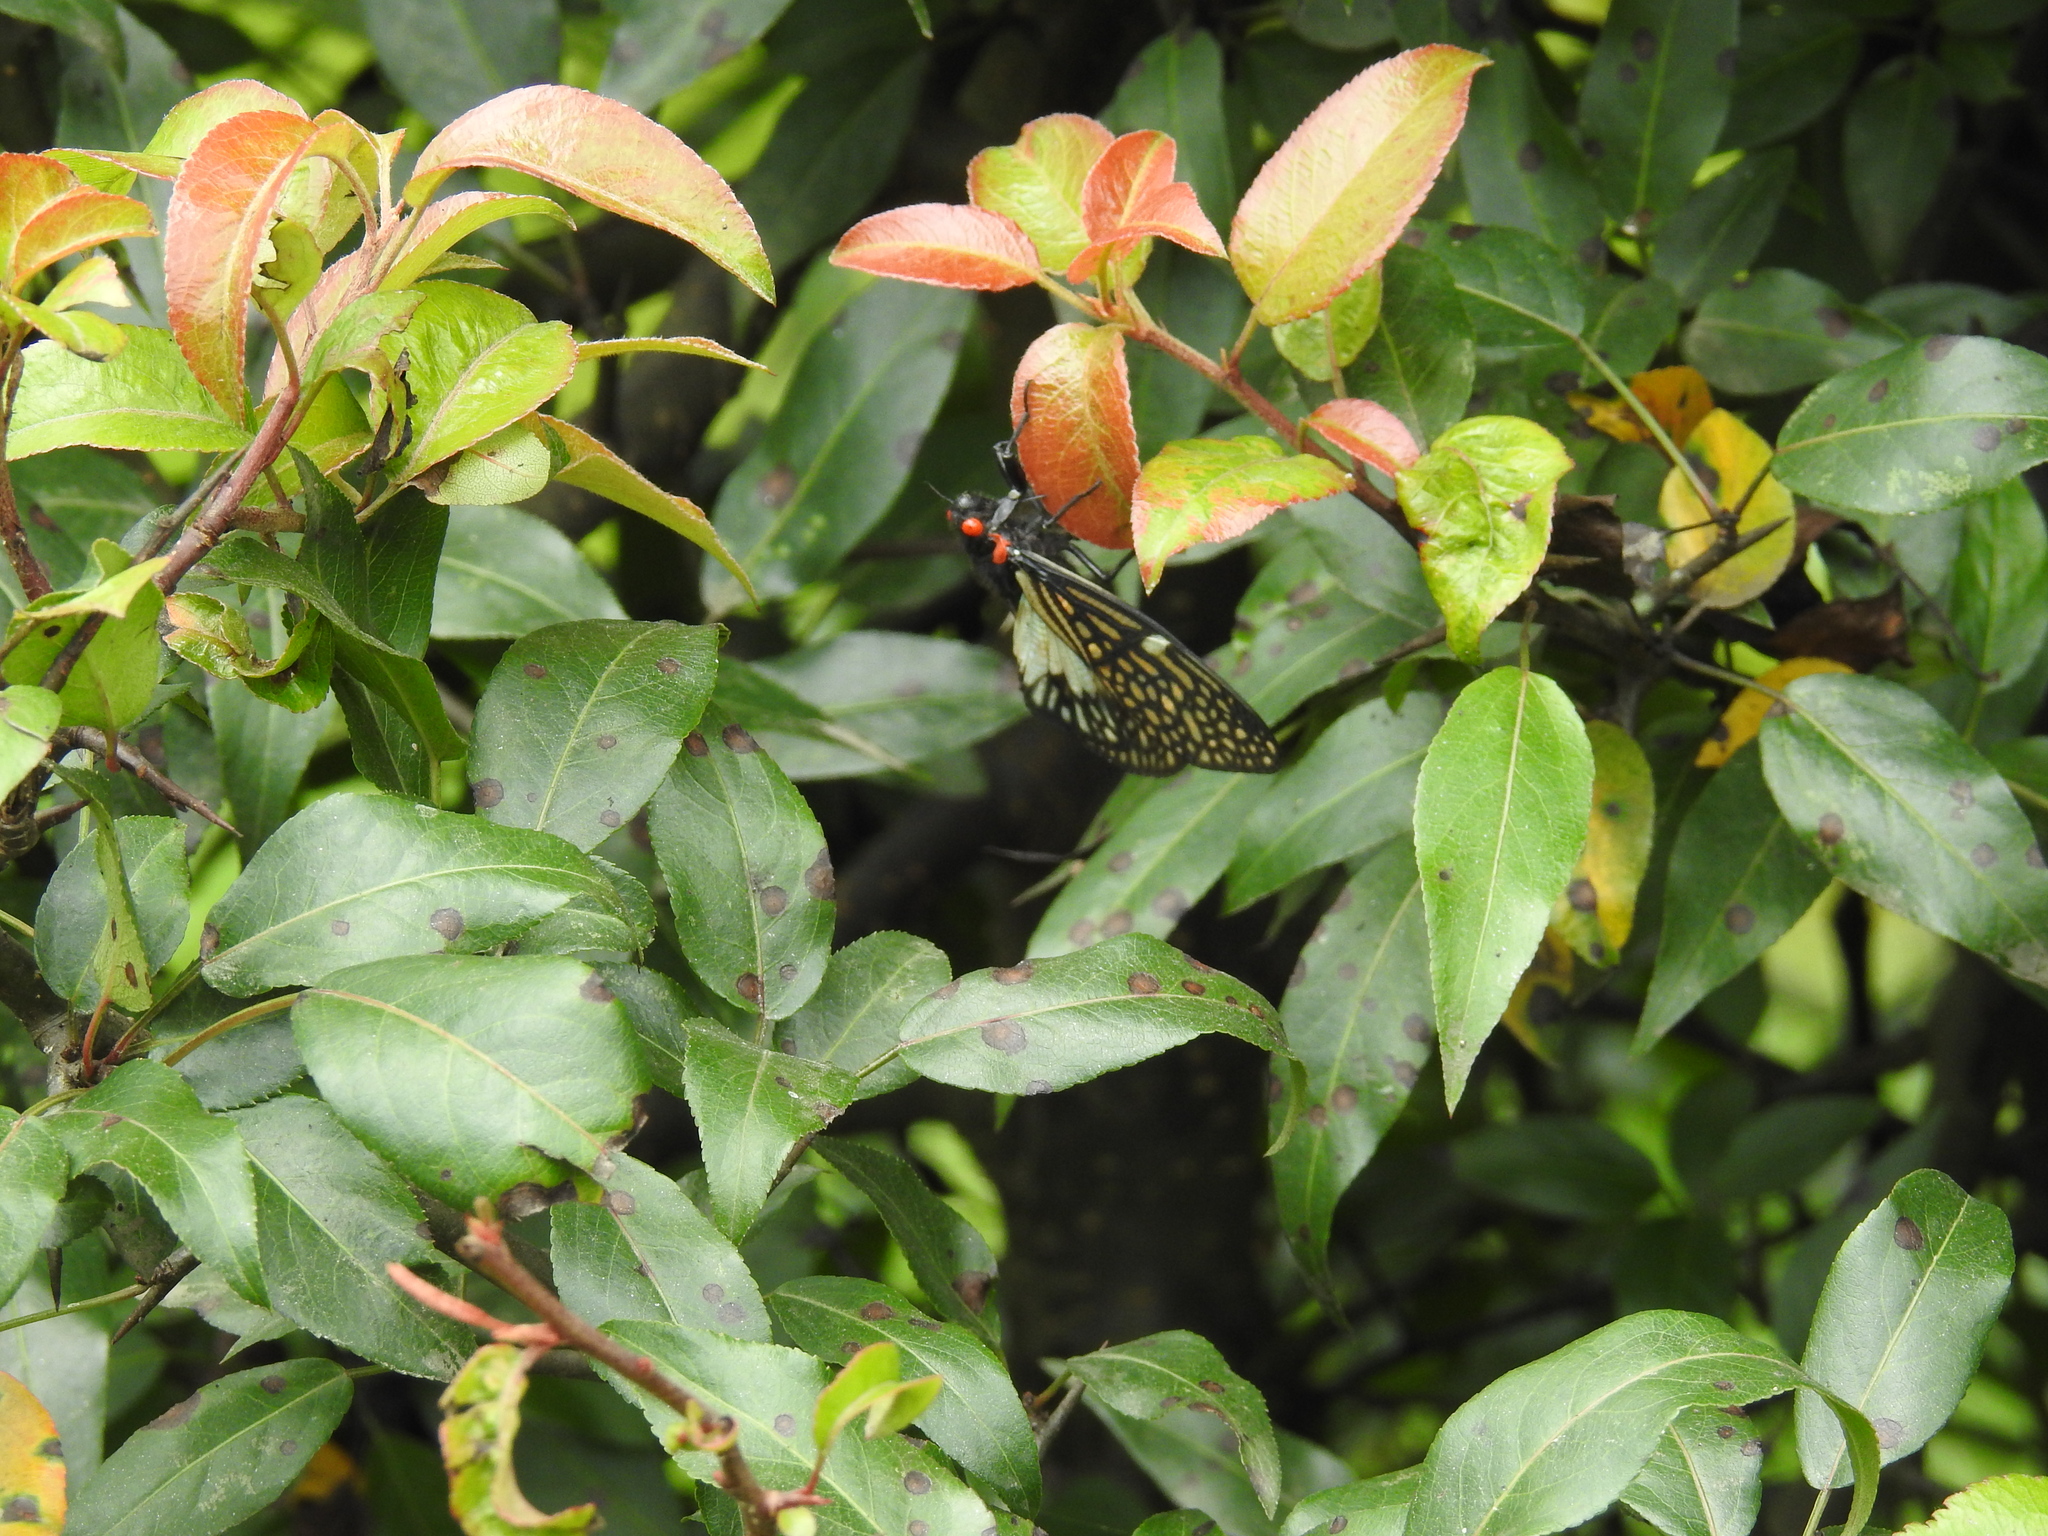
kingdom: Animalia
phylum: Arthropoda
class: Insecta
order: Hemiptera
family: Cicadidae
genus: Talainga
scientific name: Talainga binghami
